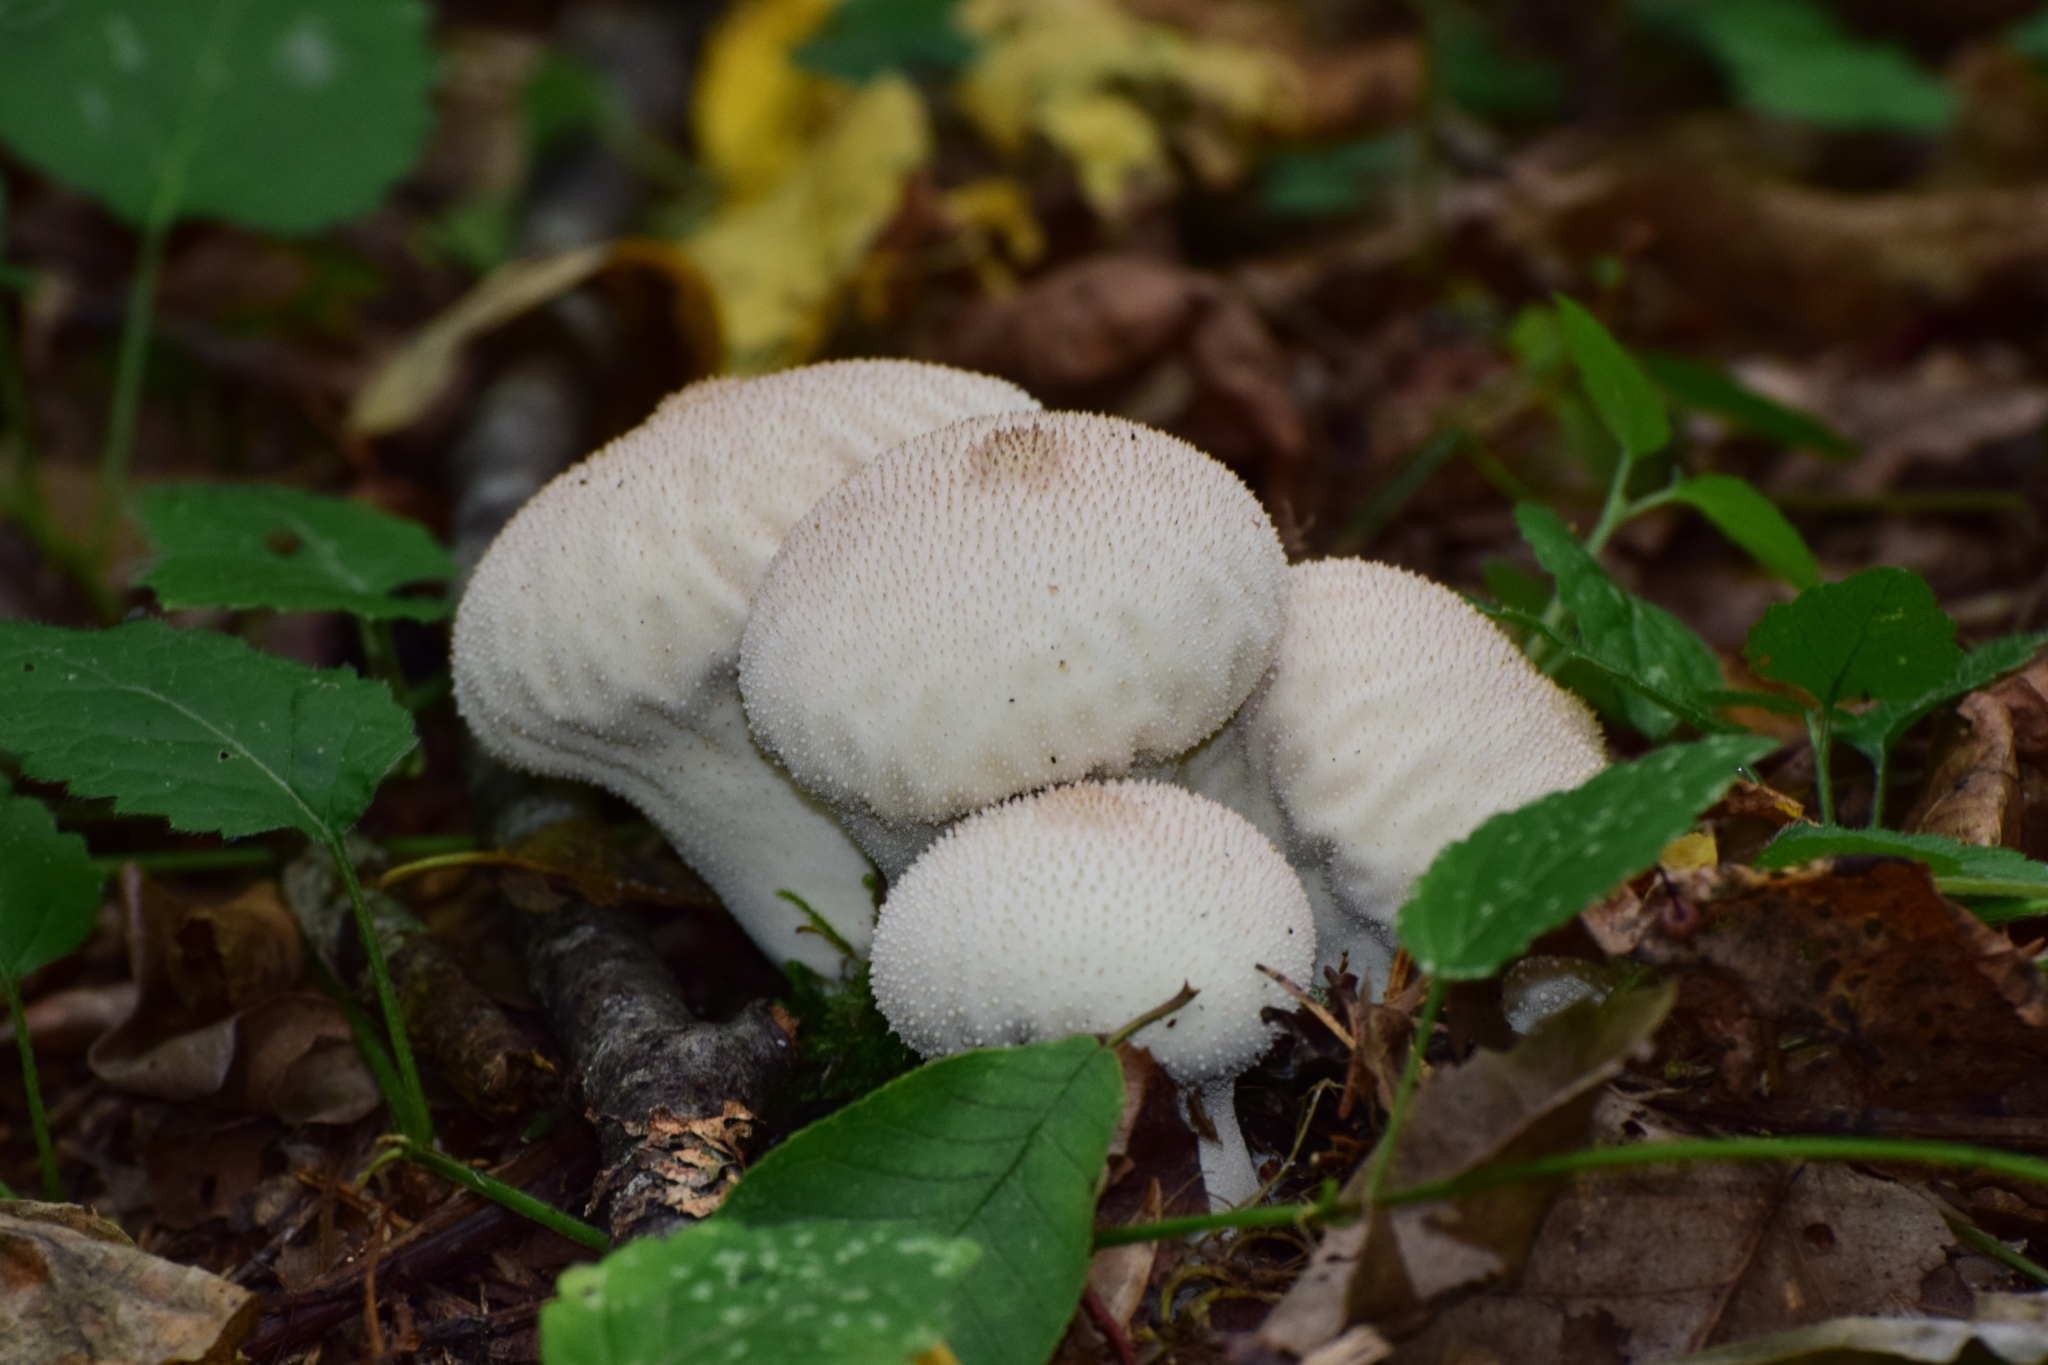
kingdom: Fungi
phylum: Basidiomycota
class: Agaricomycetes
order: Agaricales
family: Lycoperdaceae
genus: Lycoperdon
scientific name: Lycoperdon perlatum
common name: Common puffball
